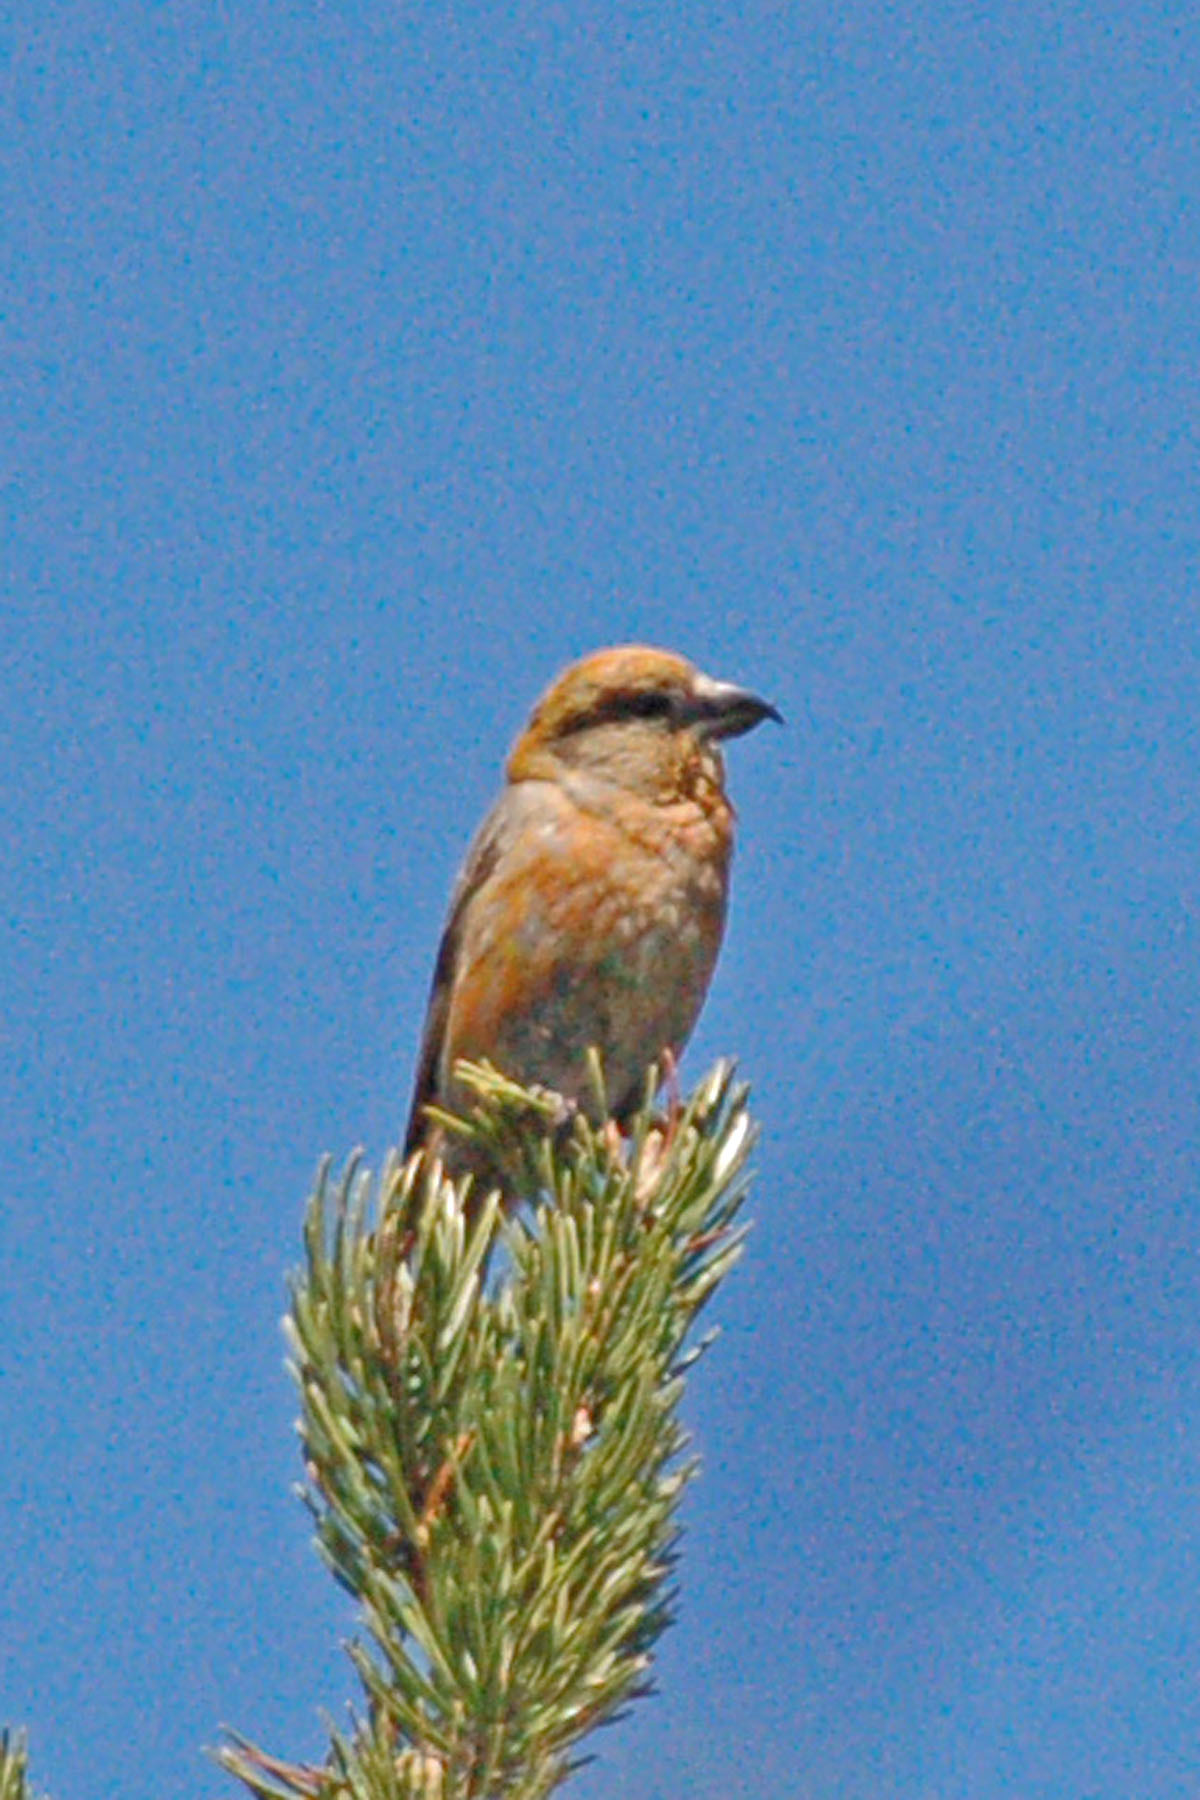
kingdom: Animalia
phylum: Chordata
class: Aves
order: Passeriformes
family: Fringillidae
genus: Loxia
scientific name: Loxia curvirostra
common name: Red crossbill
